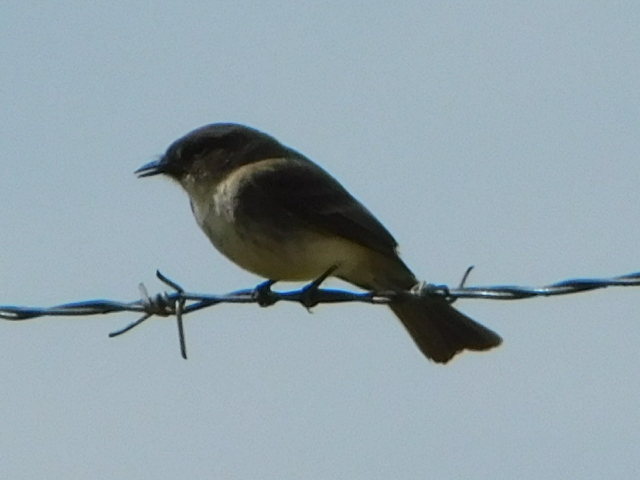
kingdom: Animalia
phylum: Chordata
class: Aves
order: Passeriformes
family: Tyrannidae
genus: Sayornis
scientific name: Sayornis phoebe
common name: Eastern phoebe
